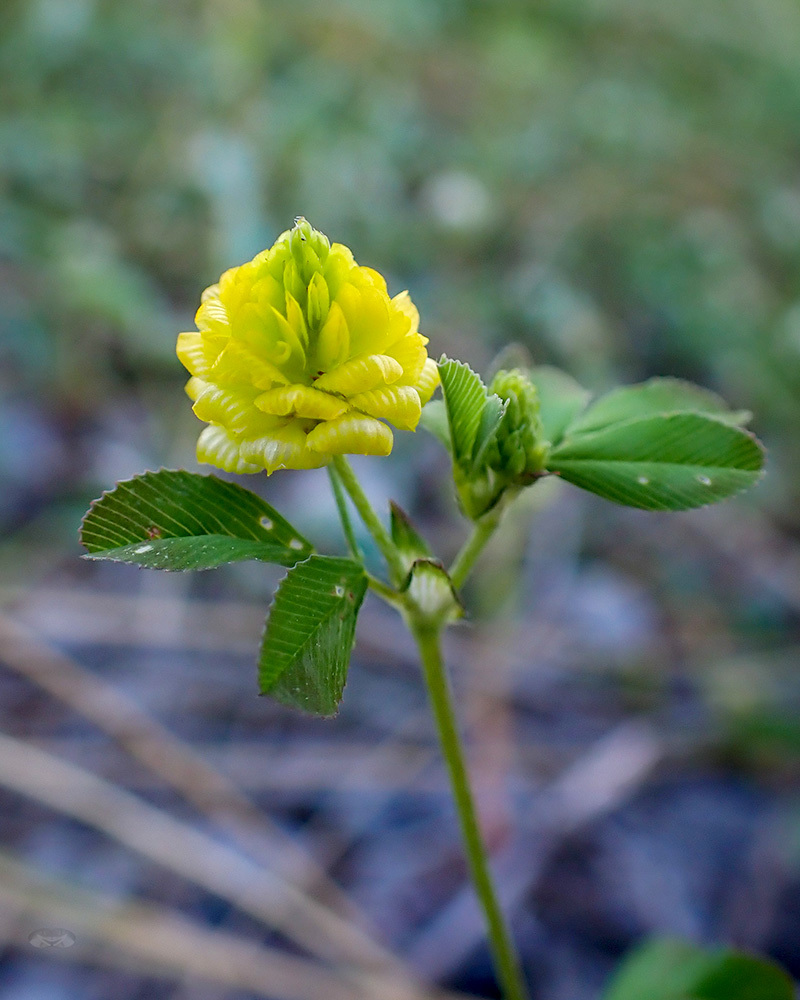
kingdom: Plantae
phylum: Tracheophyta
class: Magnoliopsida
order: Fabales
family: Fabaceae
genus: Trifolium
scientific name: Trifolium campestre
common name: Field clover
